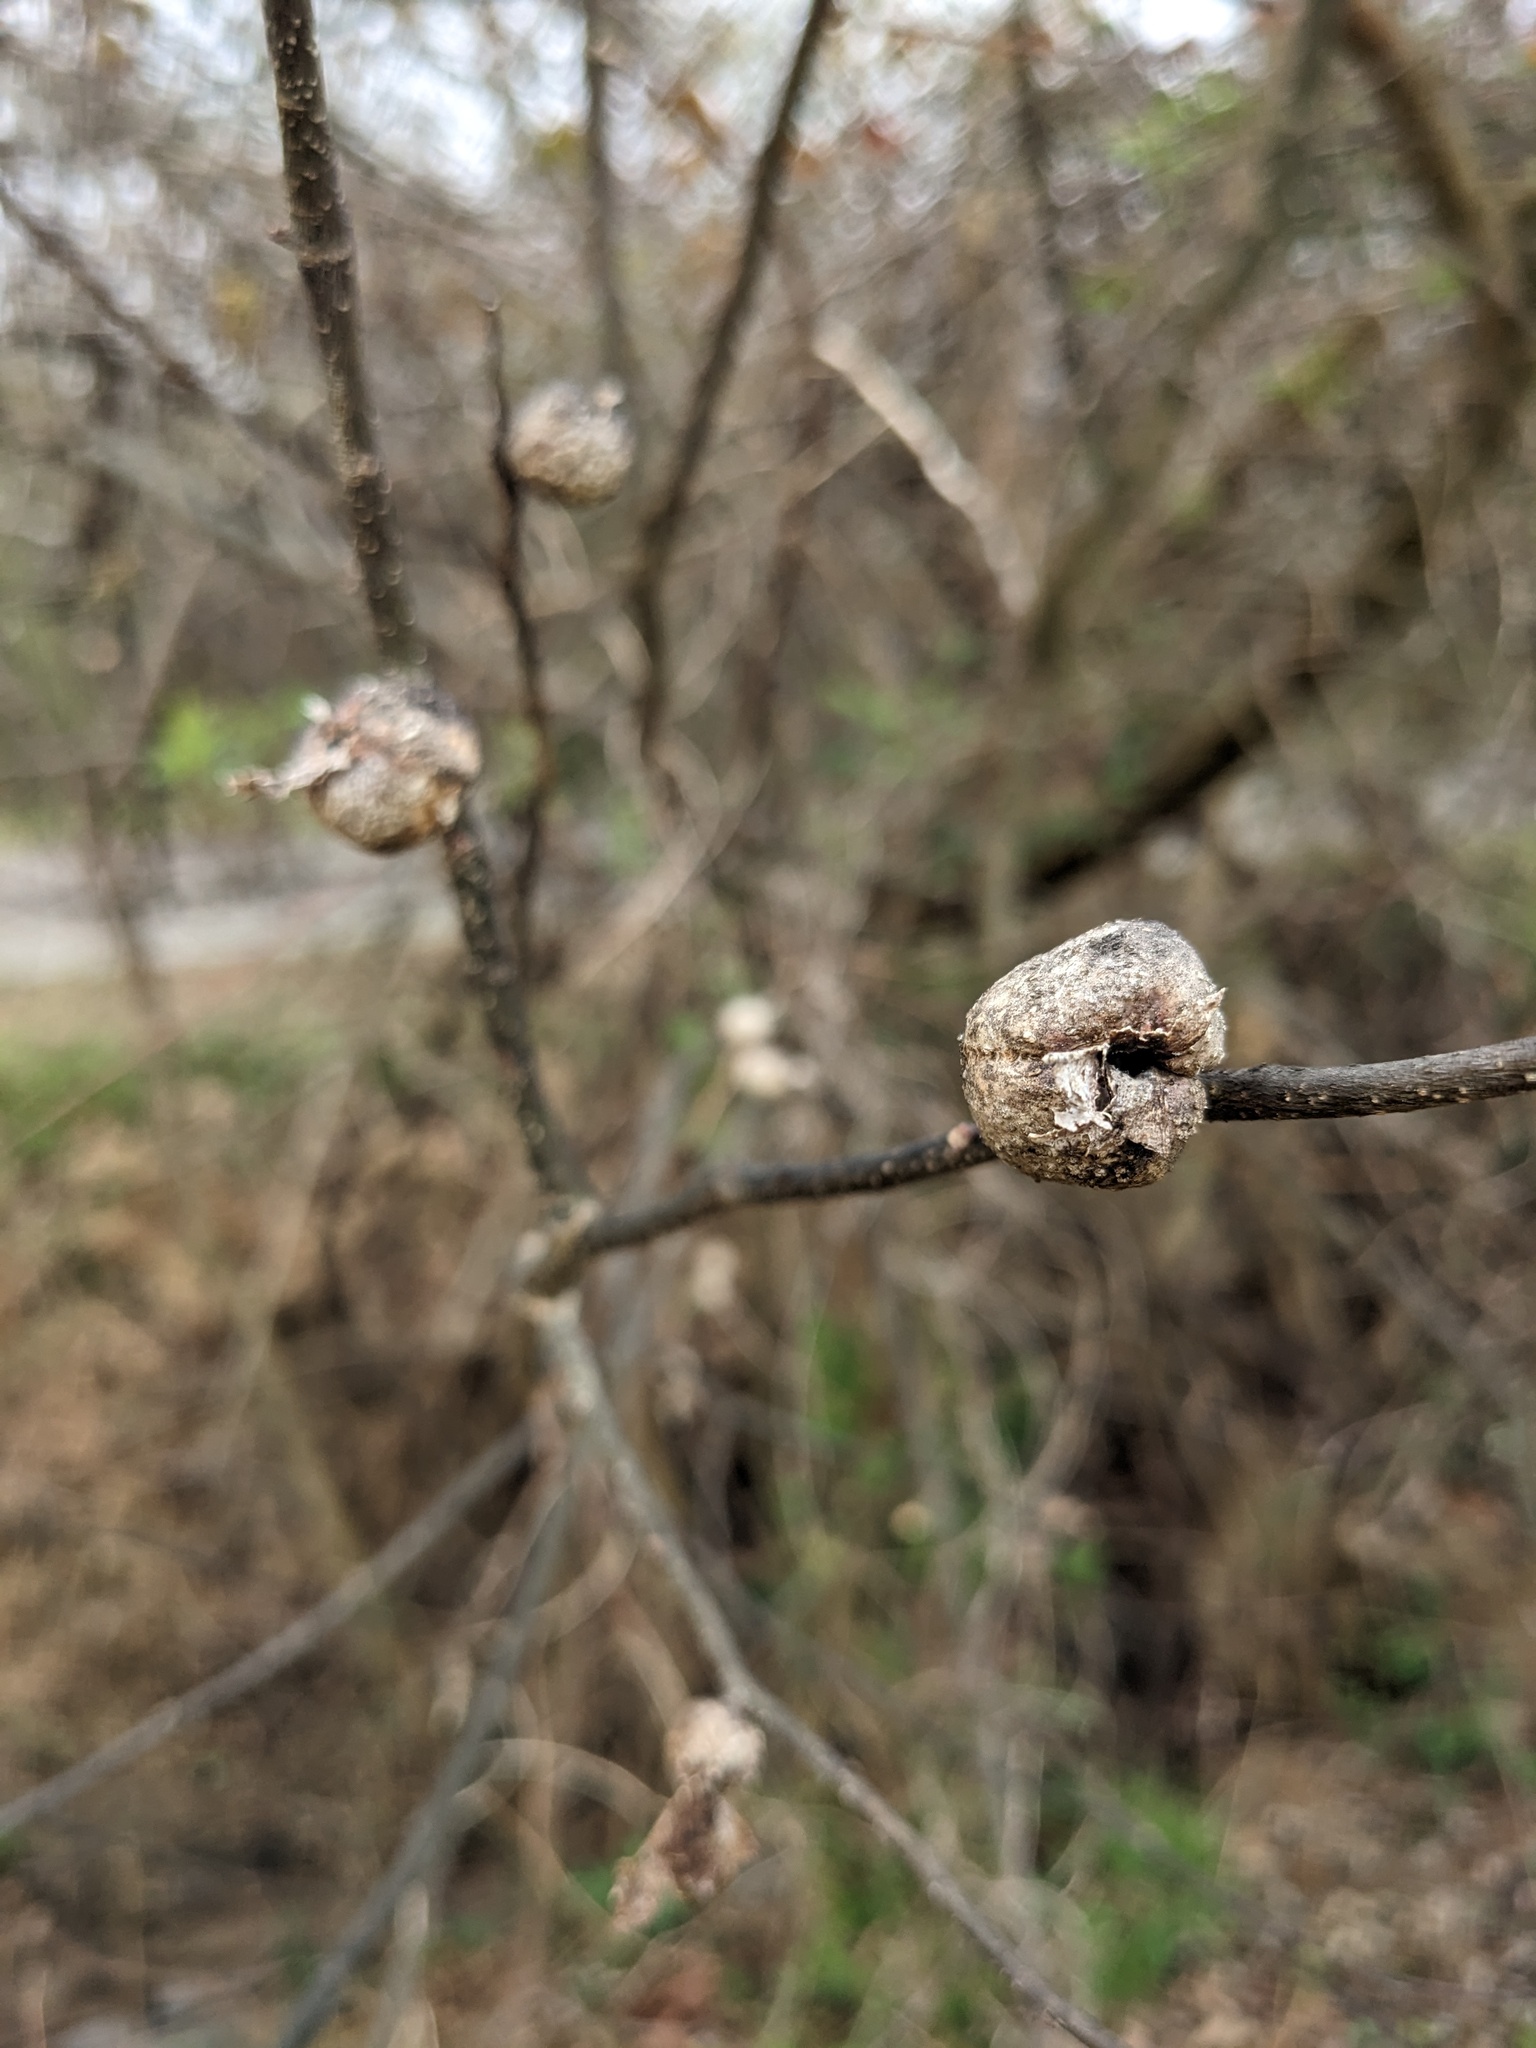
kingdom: Animalia
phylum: Arthropoda
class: Insecta
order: Hemiptera
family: Aphalaridae
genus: Pachypsylla
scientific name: Pachypsylla venusta
